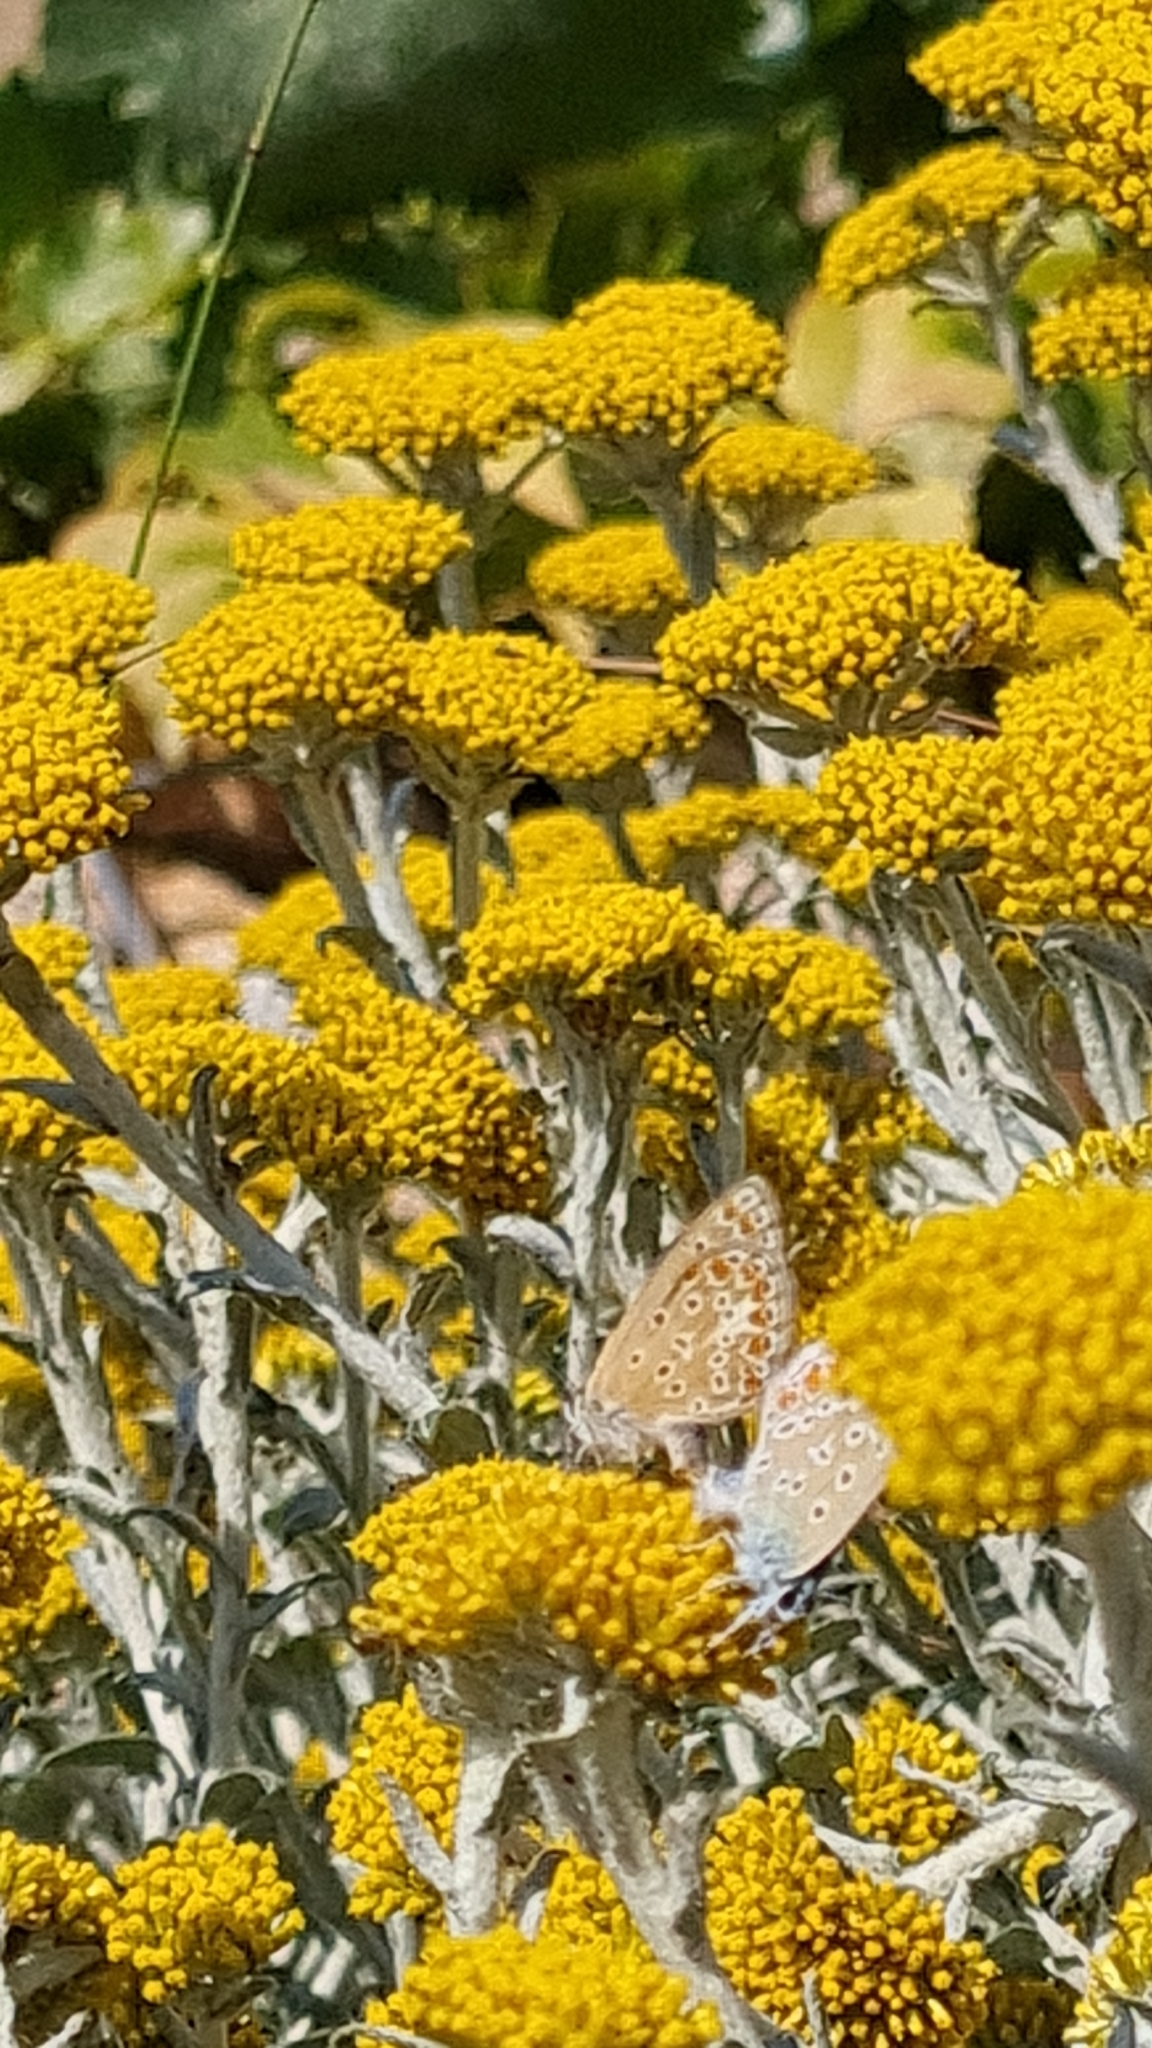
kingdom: Animalia
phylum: Arthropoda
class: Insecta
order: Lepidoptera
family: Lycaenidae
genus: Polyommatus
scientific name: Polyommatus icarus
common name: Common blue
